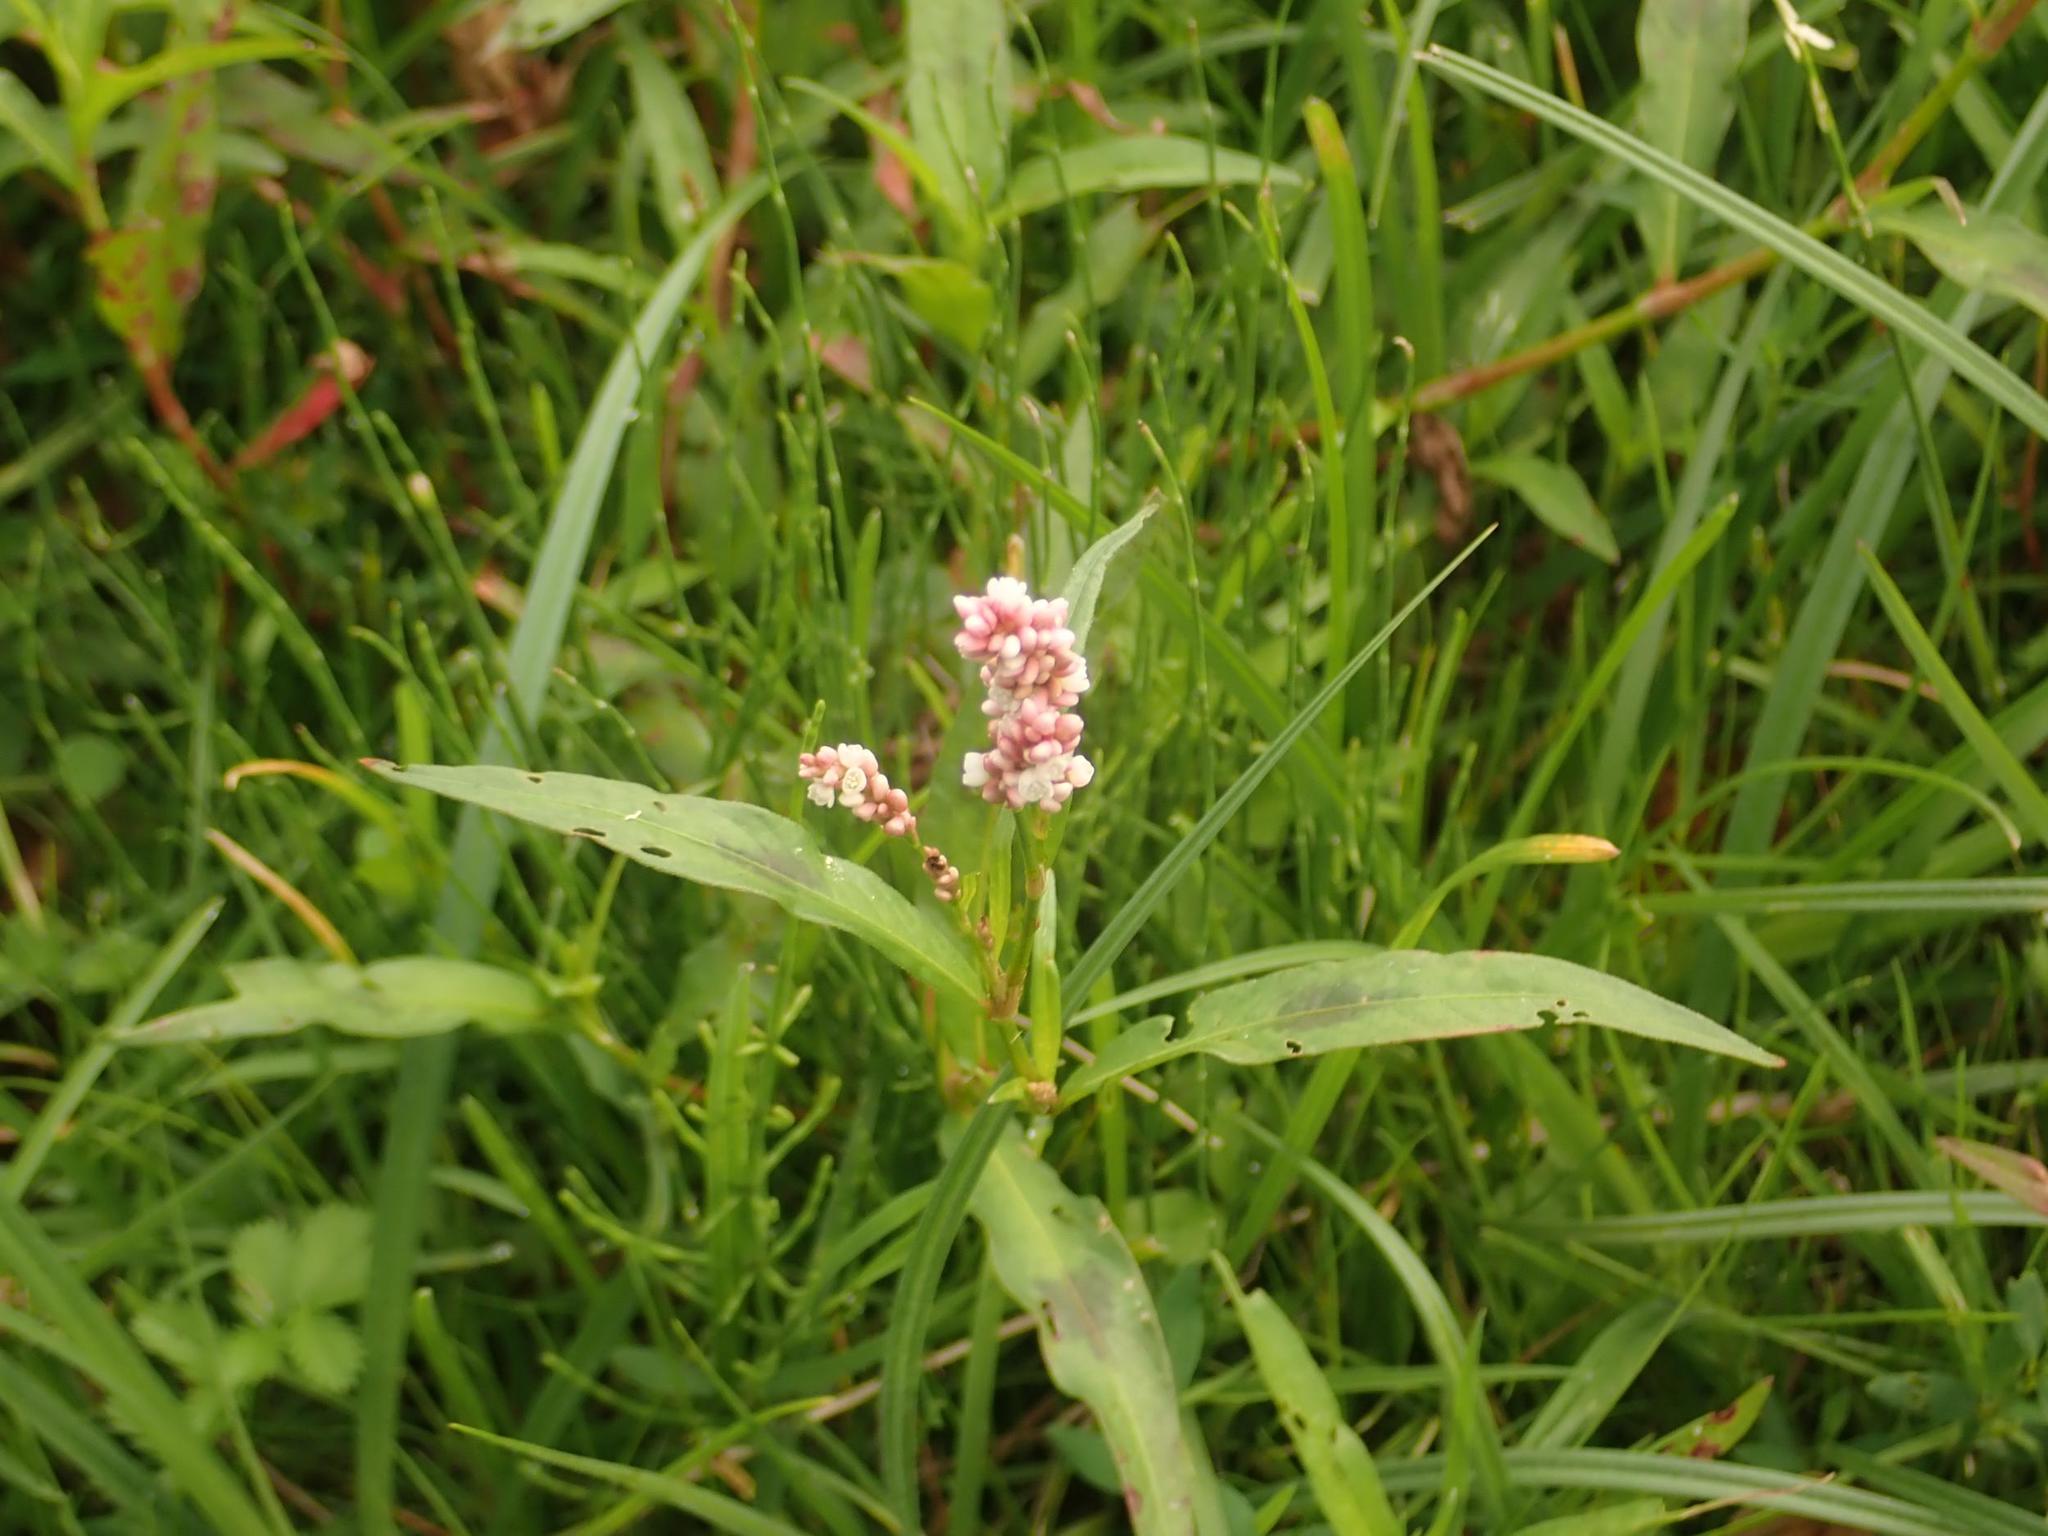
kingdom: Plantae
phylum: Tracheophyta
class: Magnoliopsida
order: Caryophyllales
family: Polygonaceae
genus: Persicaria
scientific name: Persicaria maculosa
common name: Redshank
